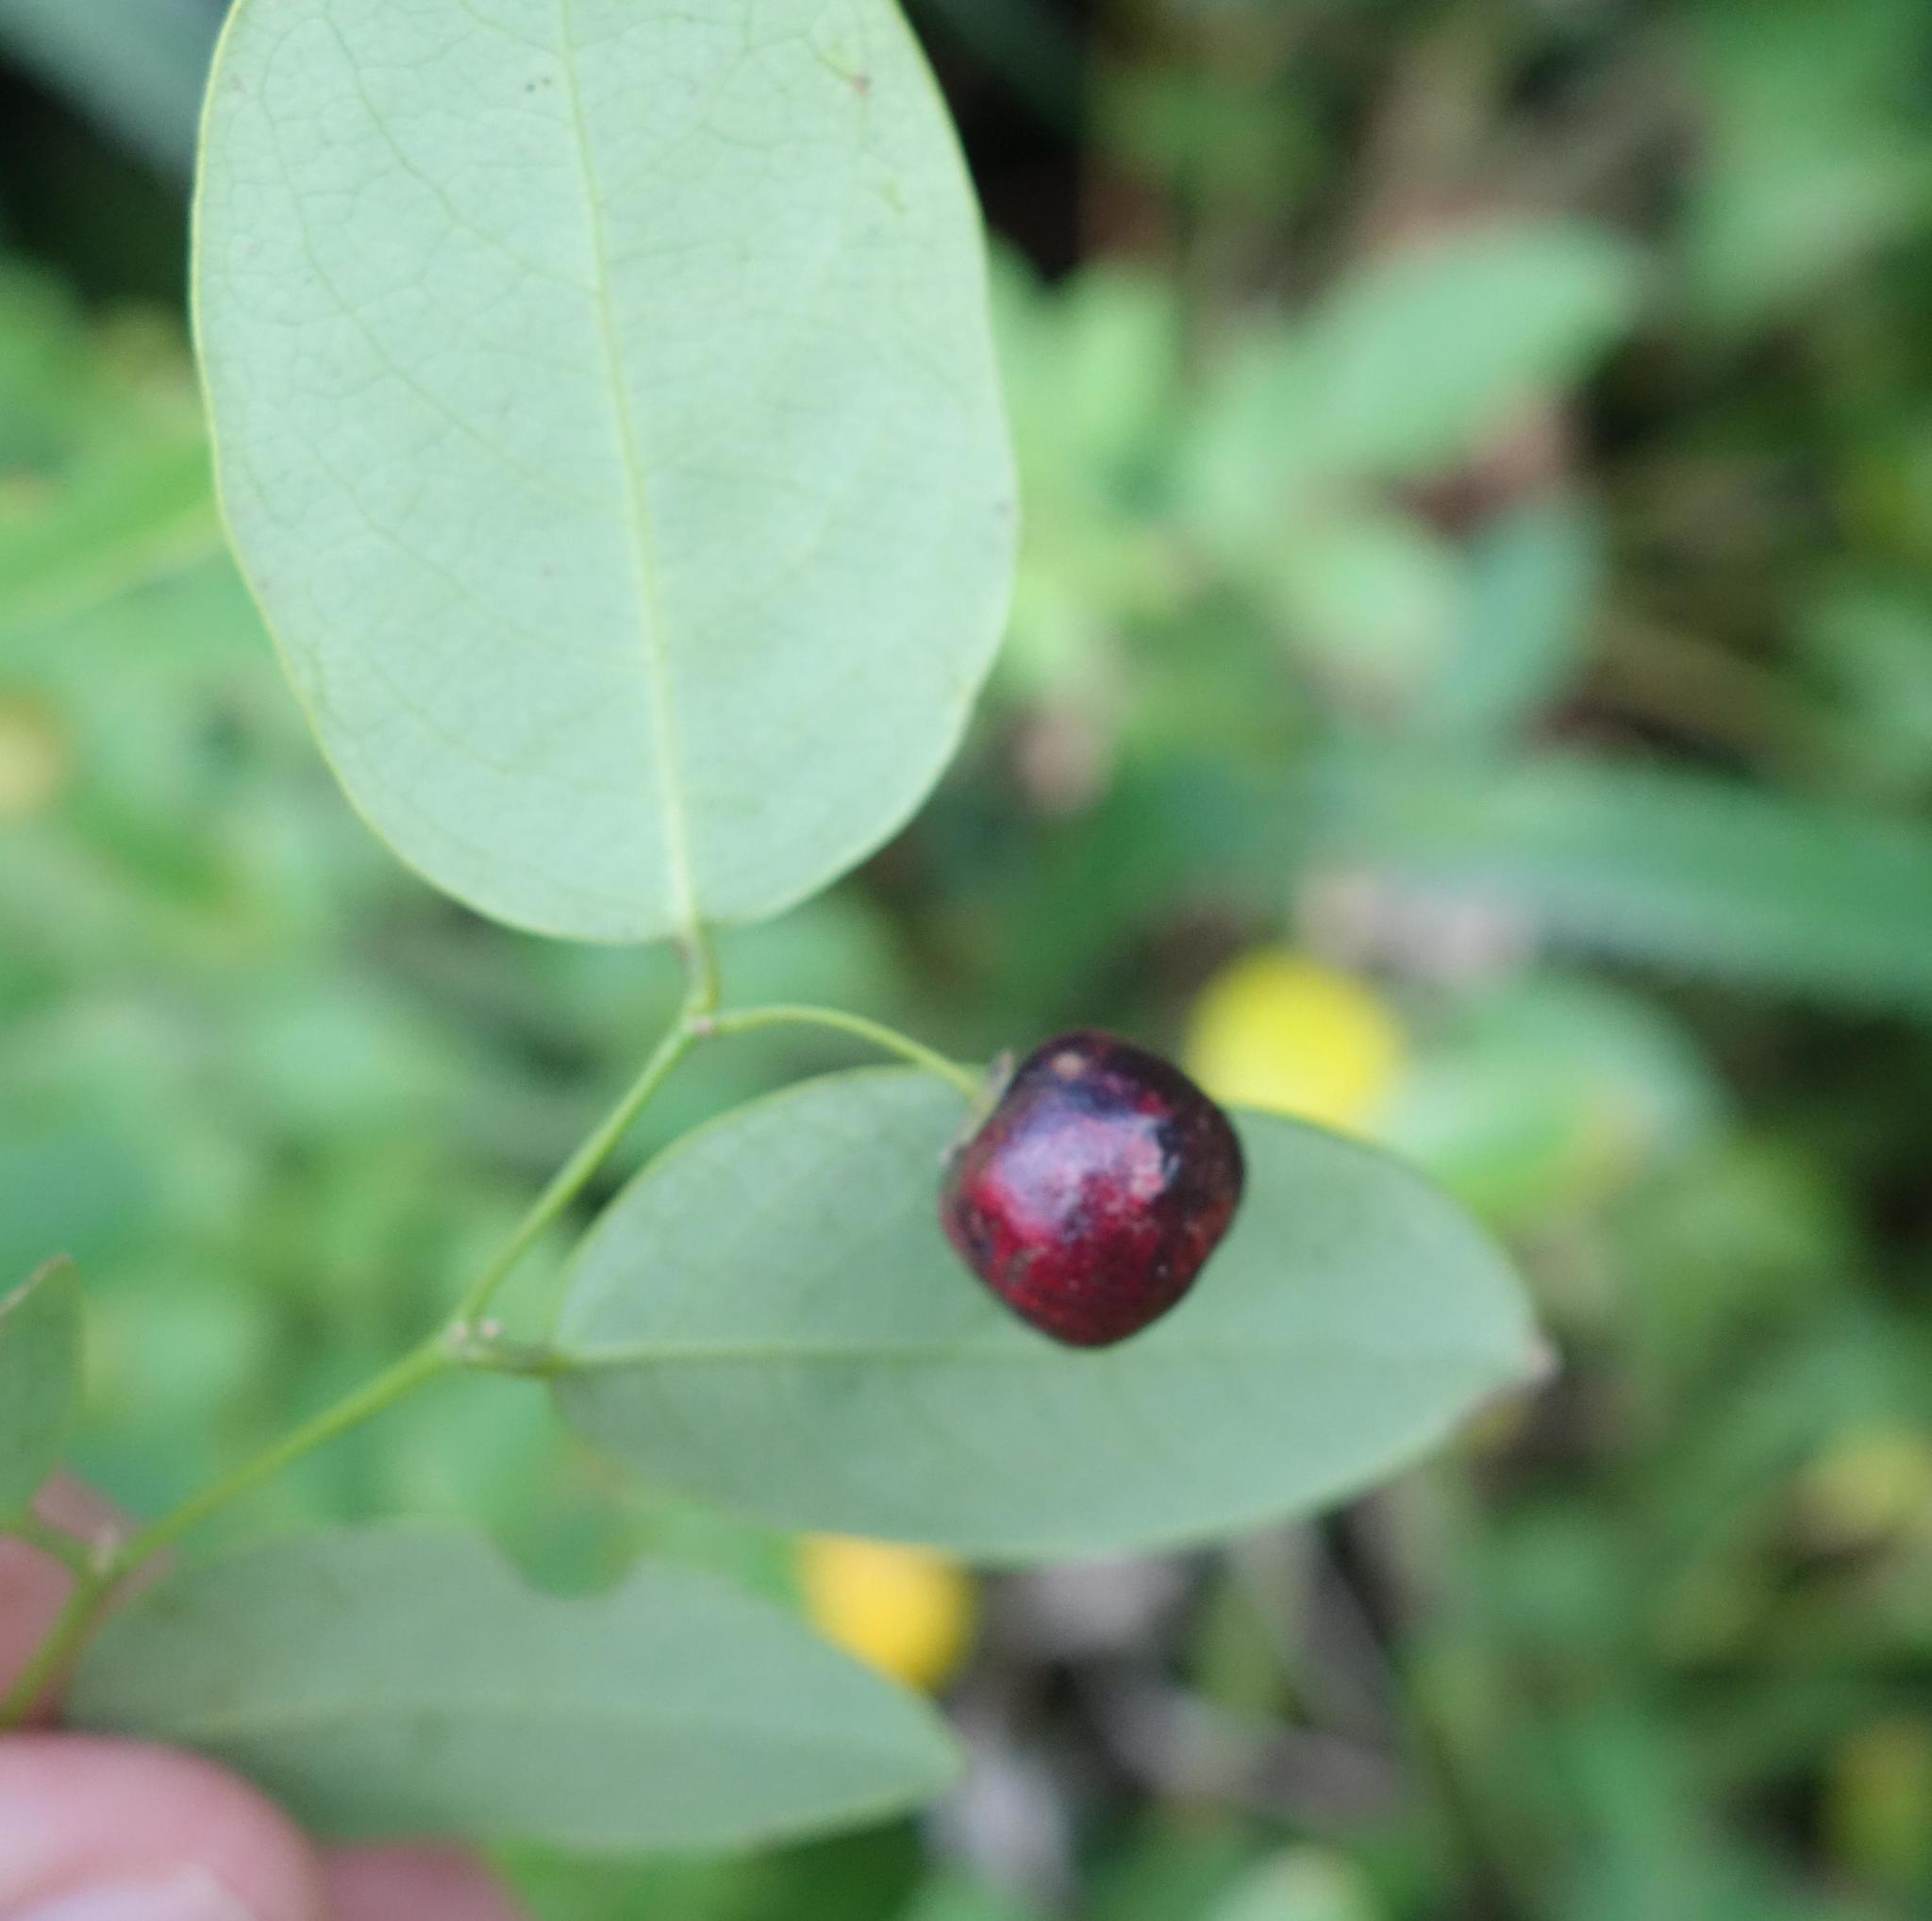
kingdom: Plantae
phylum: Tracheophyta
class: Magnoliopsida
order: Malpighiales
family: Phyllanthaceae
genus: Phyllanthus
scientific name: Phyllanthus reticulatus
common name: Potato bush
